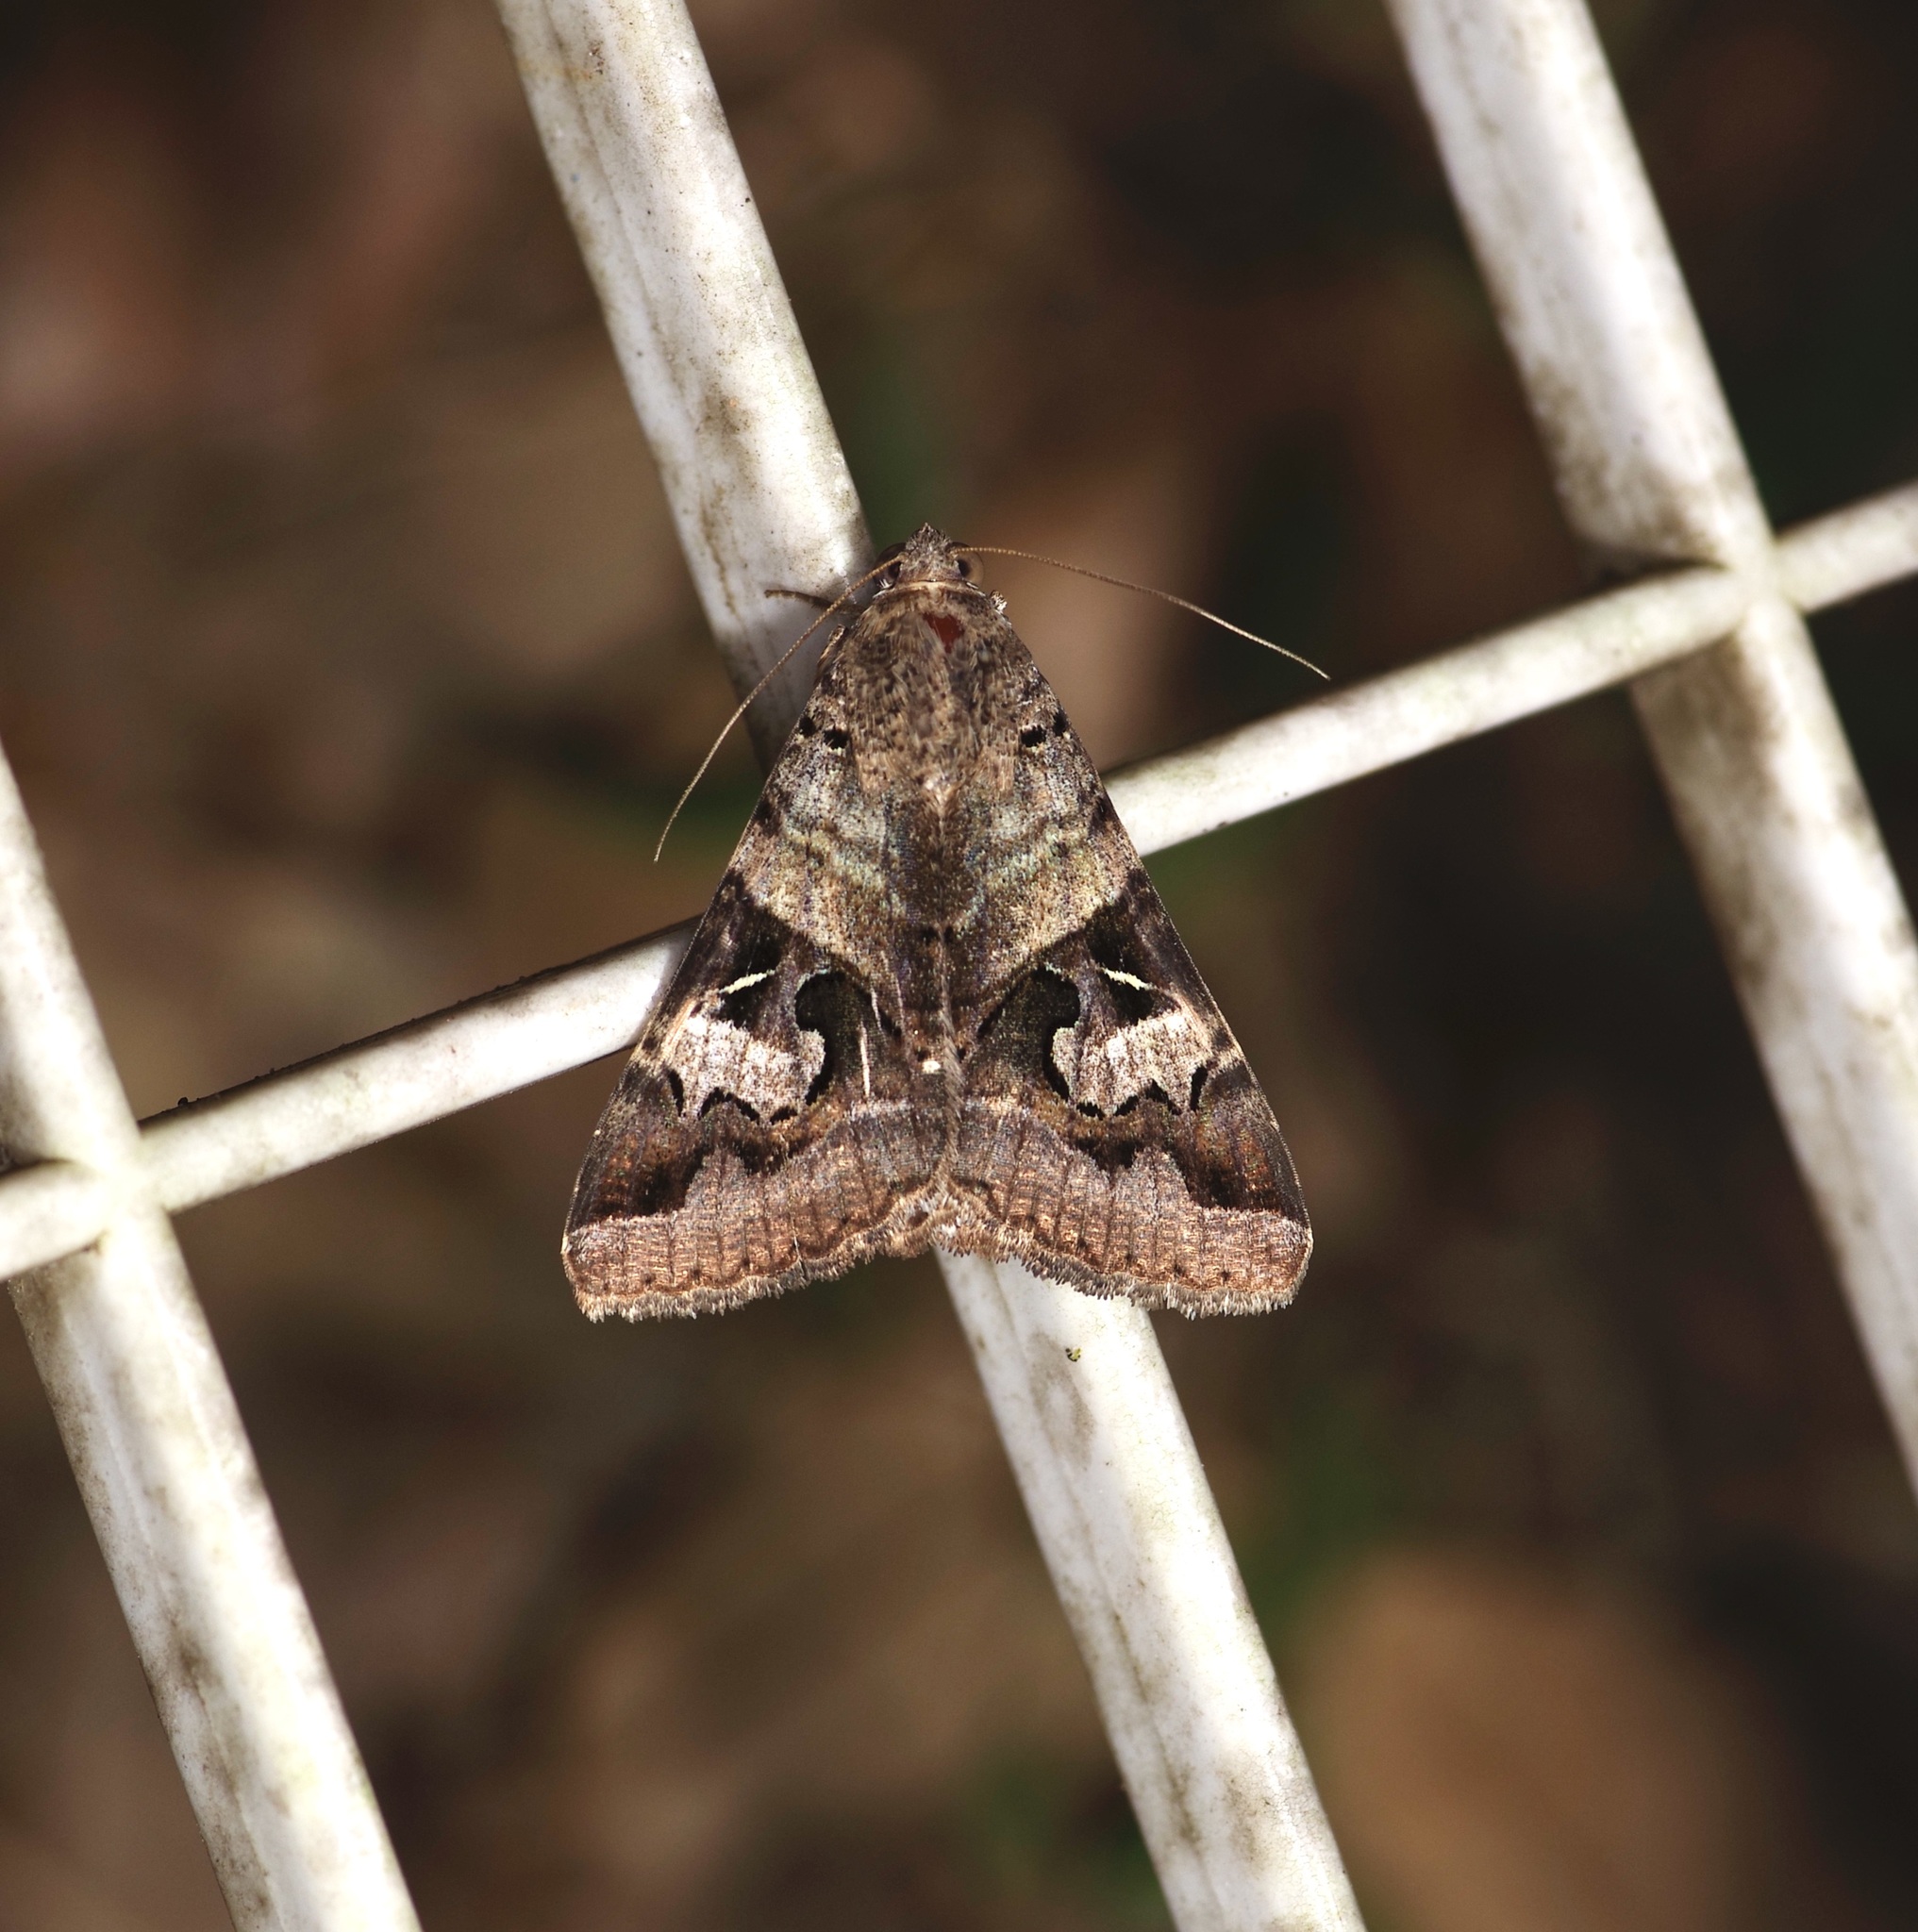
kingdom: Animalia
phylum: Arthropoda
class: Insecta
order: Lepidoptera
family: Erebidae
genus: Melipotis
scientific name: Melipotis indomita
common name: Moth
